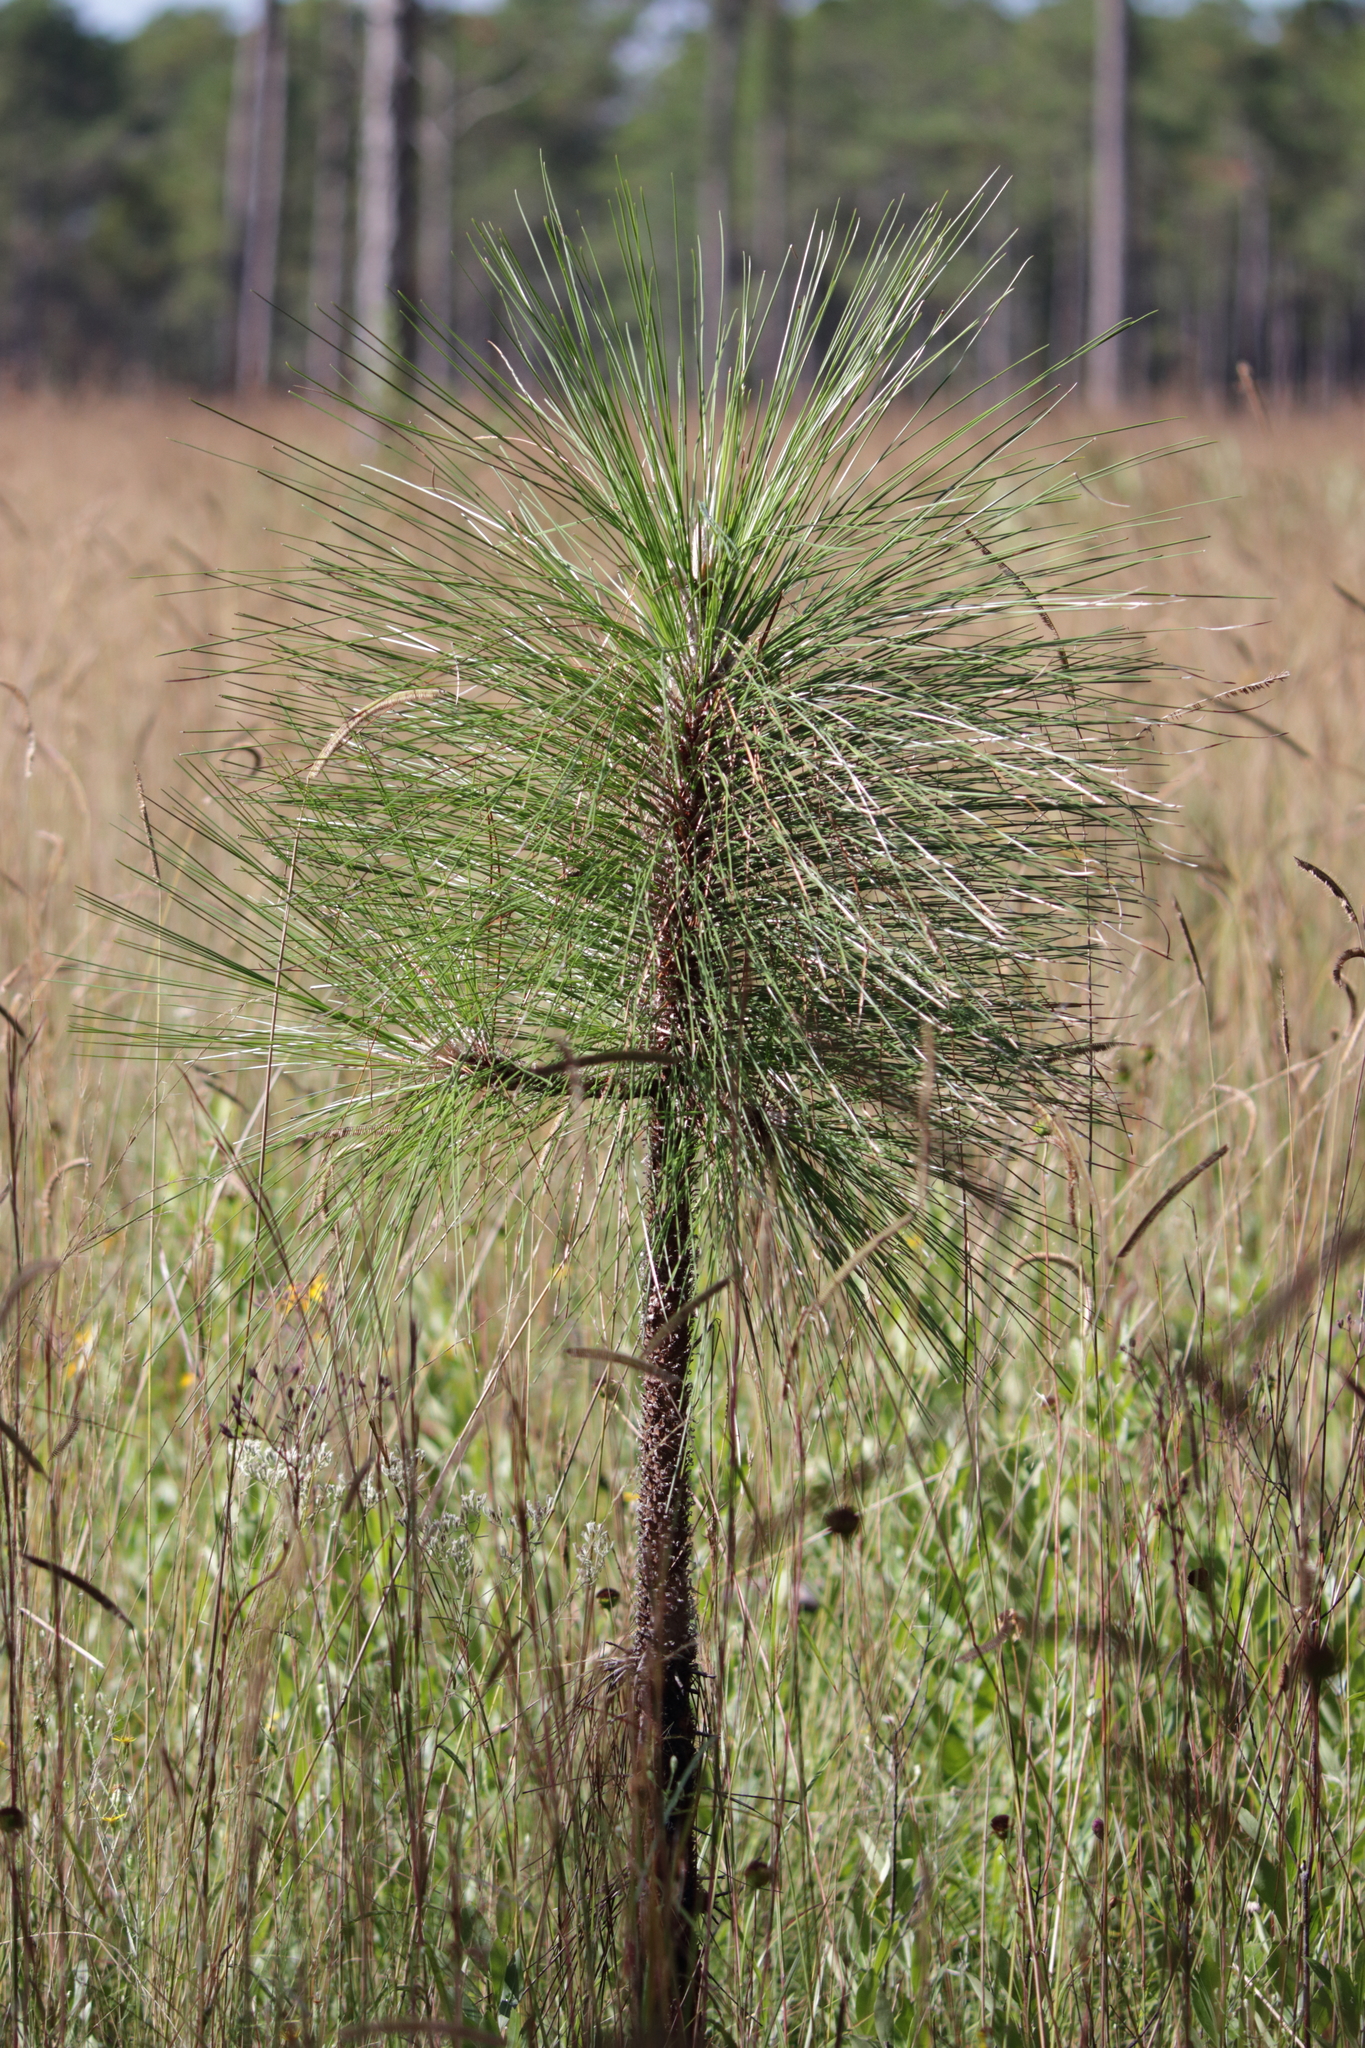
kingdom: Plantae
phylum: Tracheophyta
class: Pinopsida
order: Pinales
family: Pinaceae
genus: Pinus
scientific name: Pinus palustris
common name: Longleaf pine
